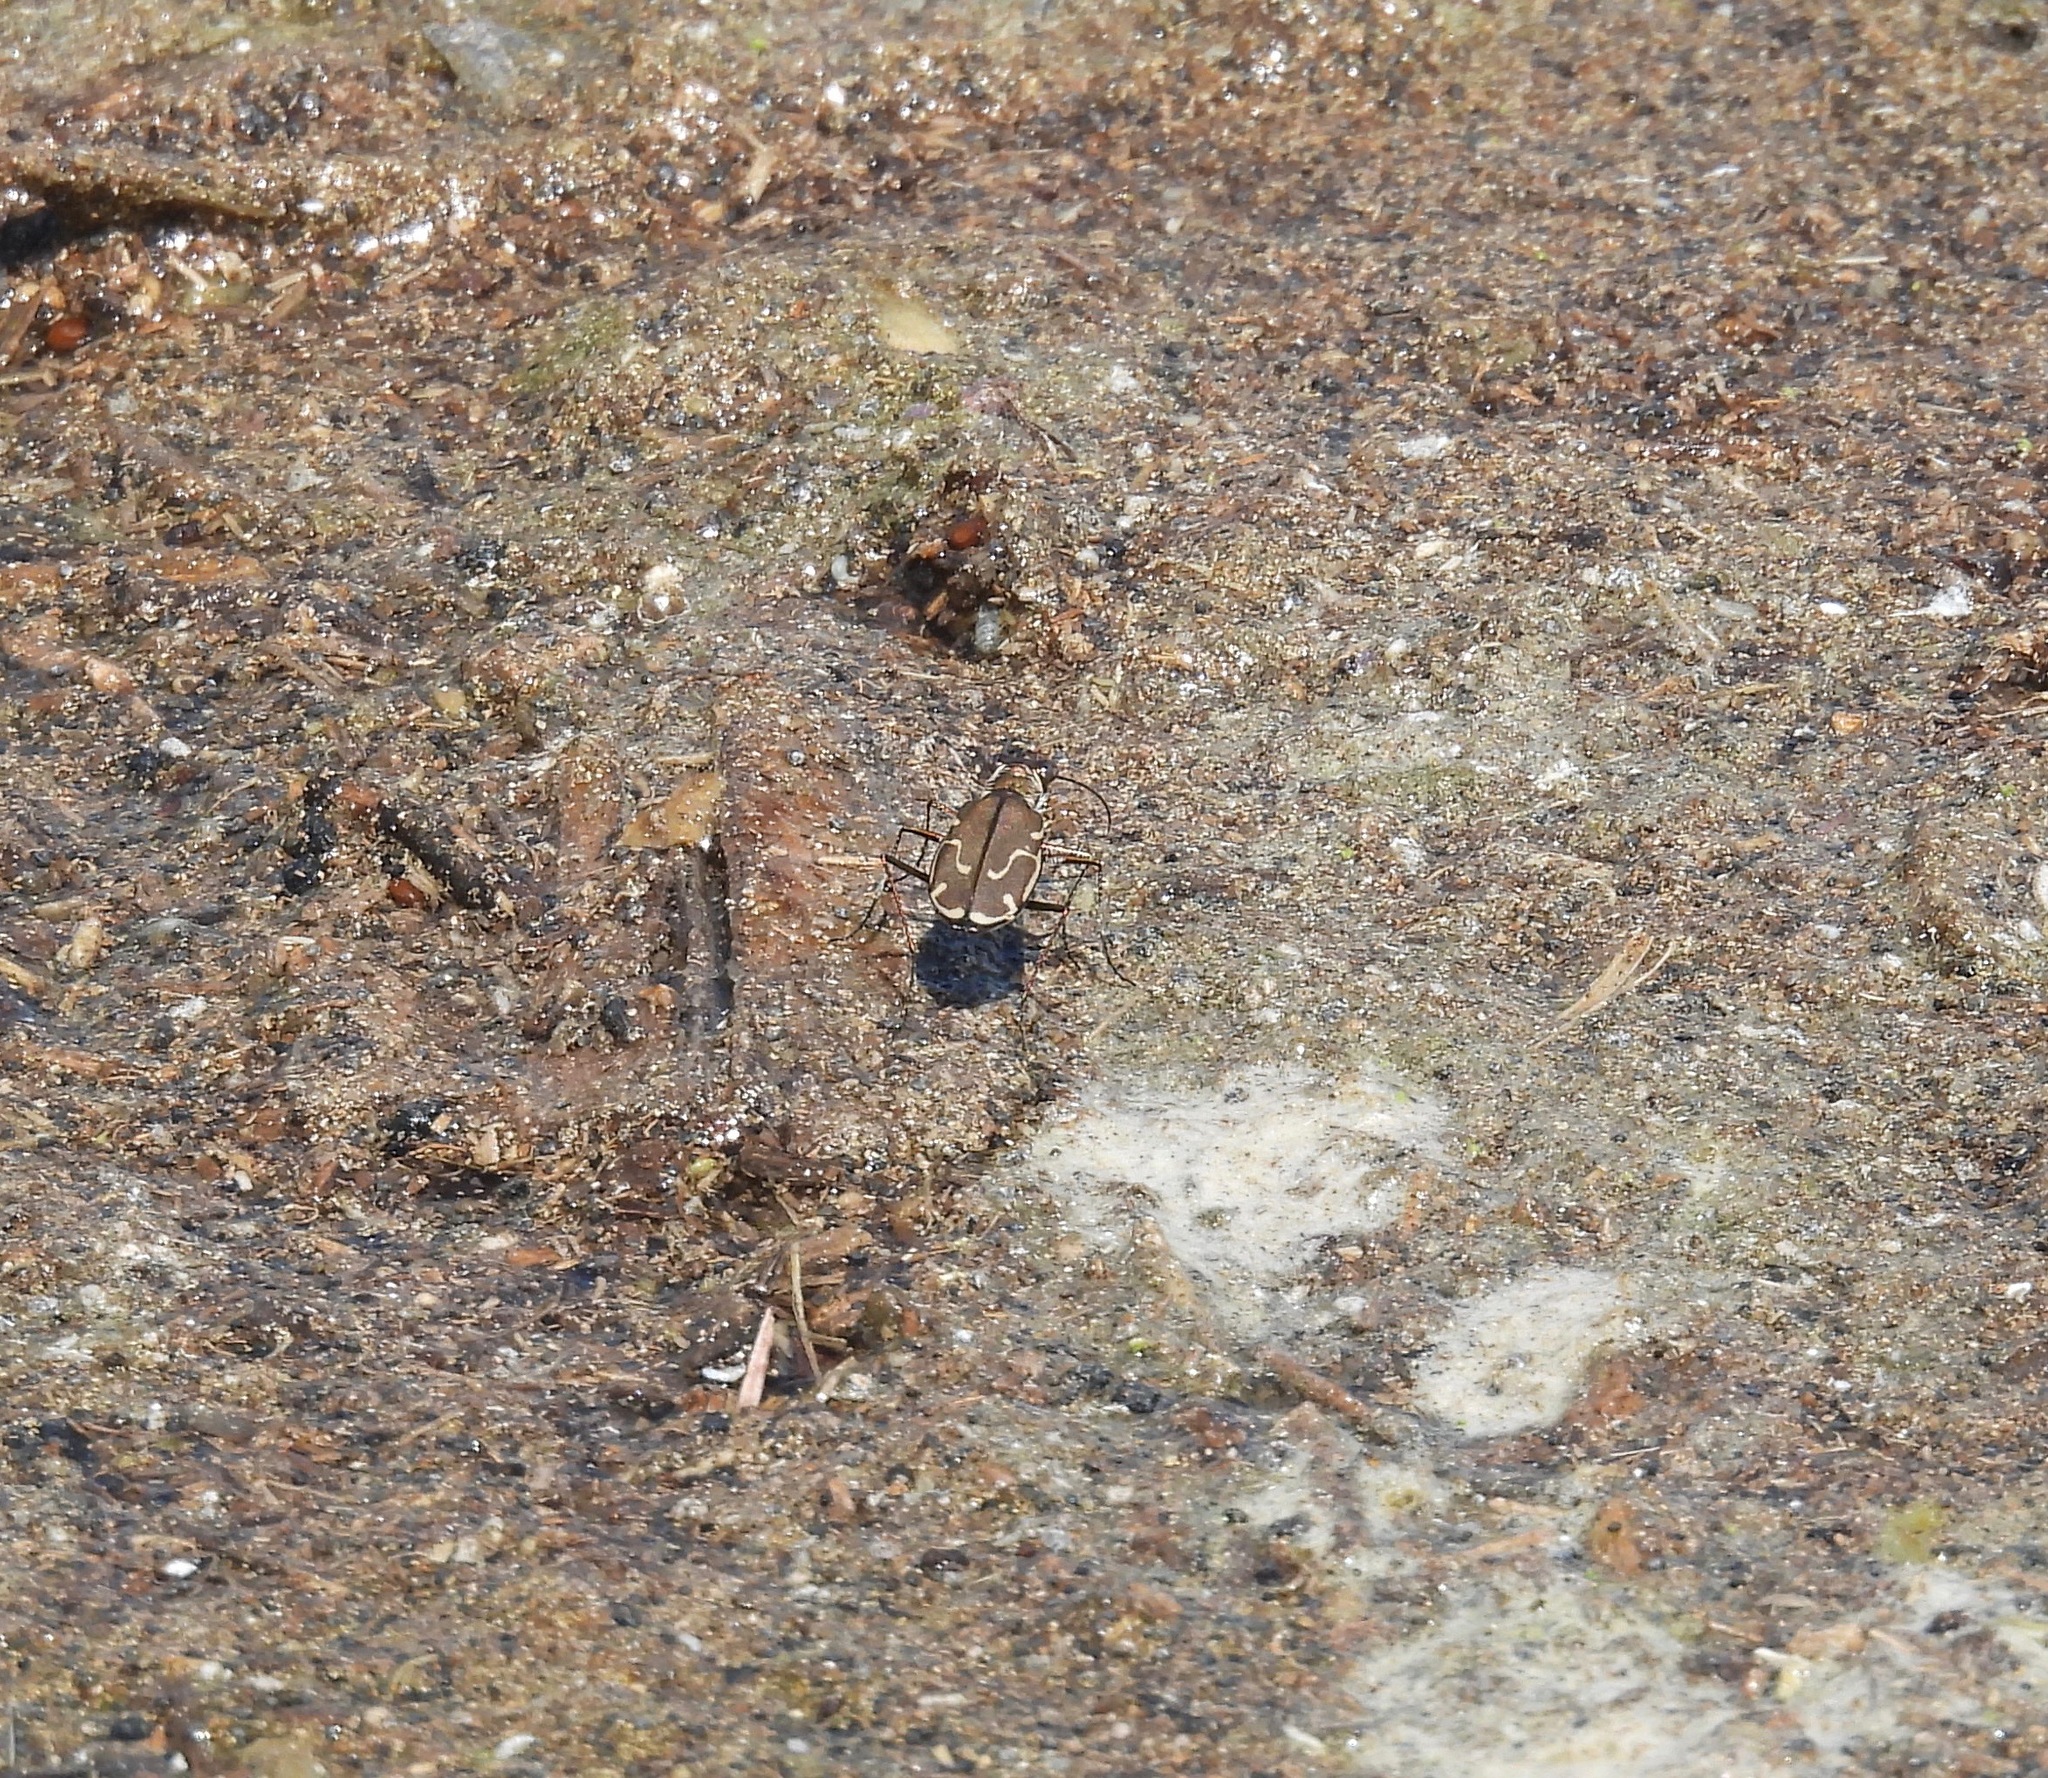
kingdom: Animalia
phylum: Arthropoda
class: Insecta
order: Coleoptera
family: Carabidae
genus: Cicindela
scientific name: Cicindela tenuisignata
